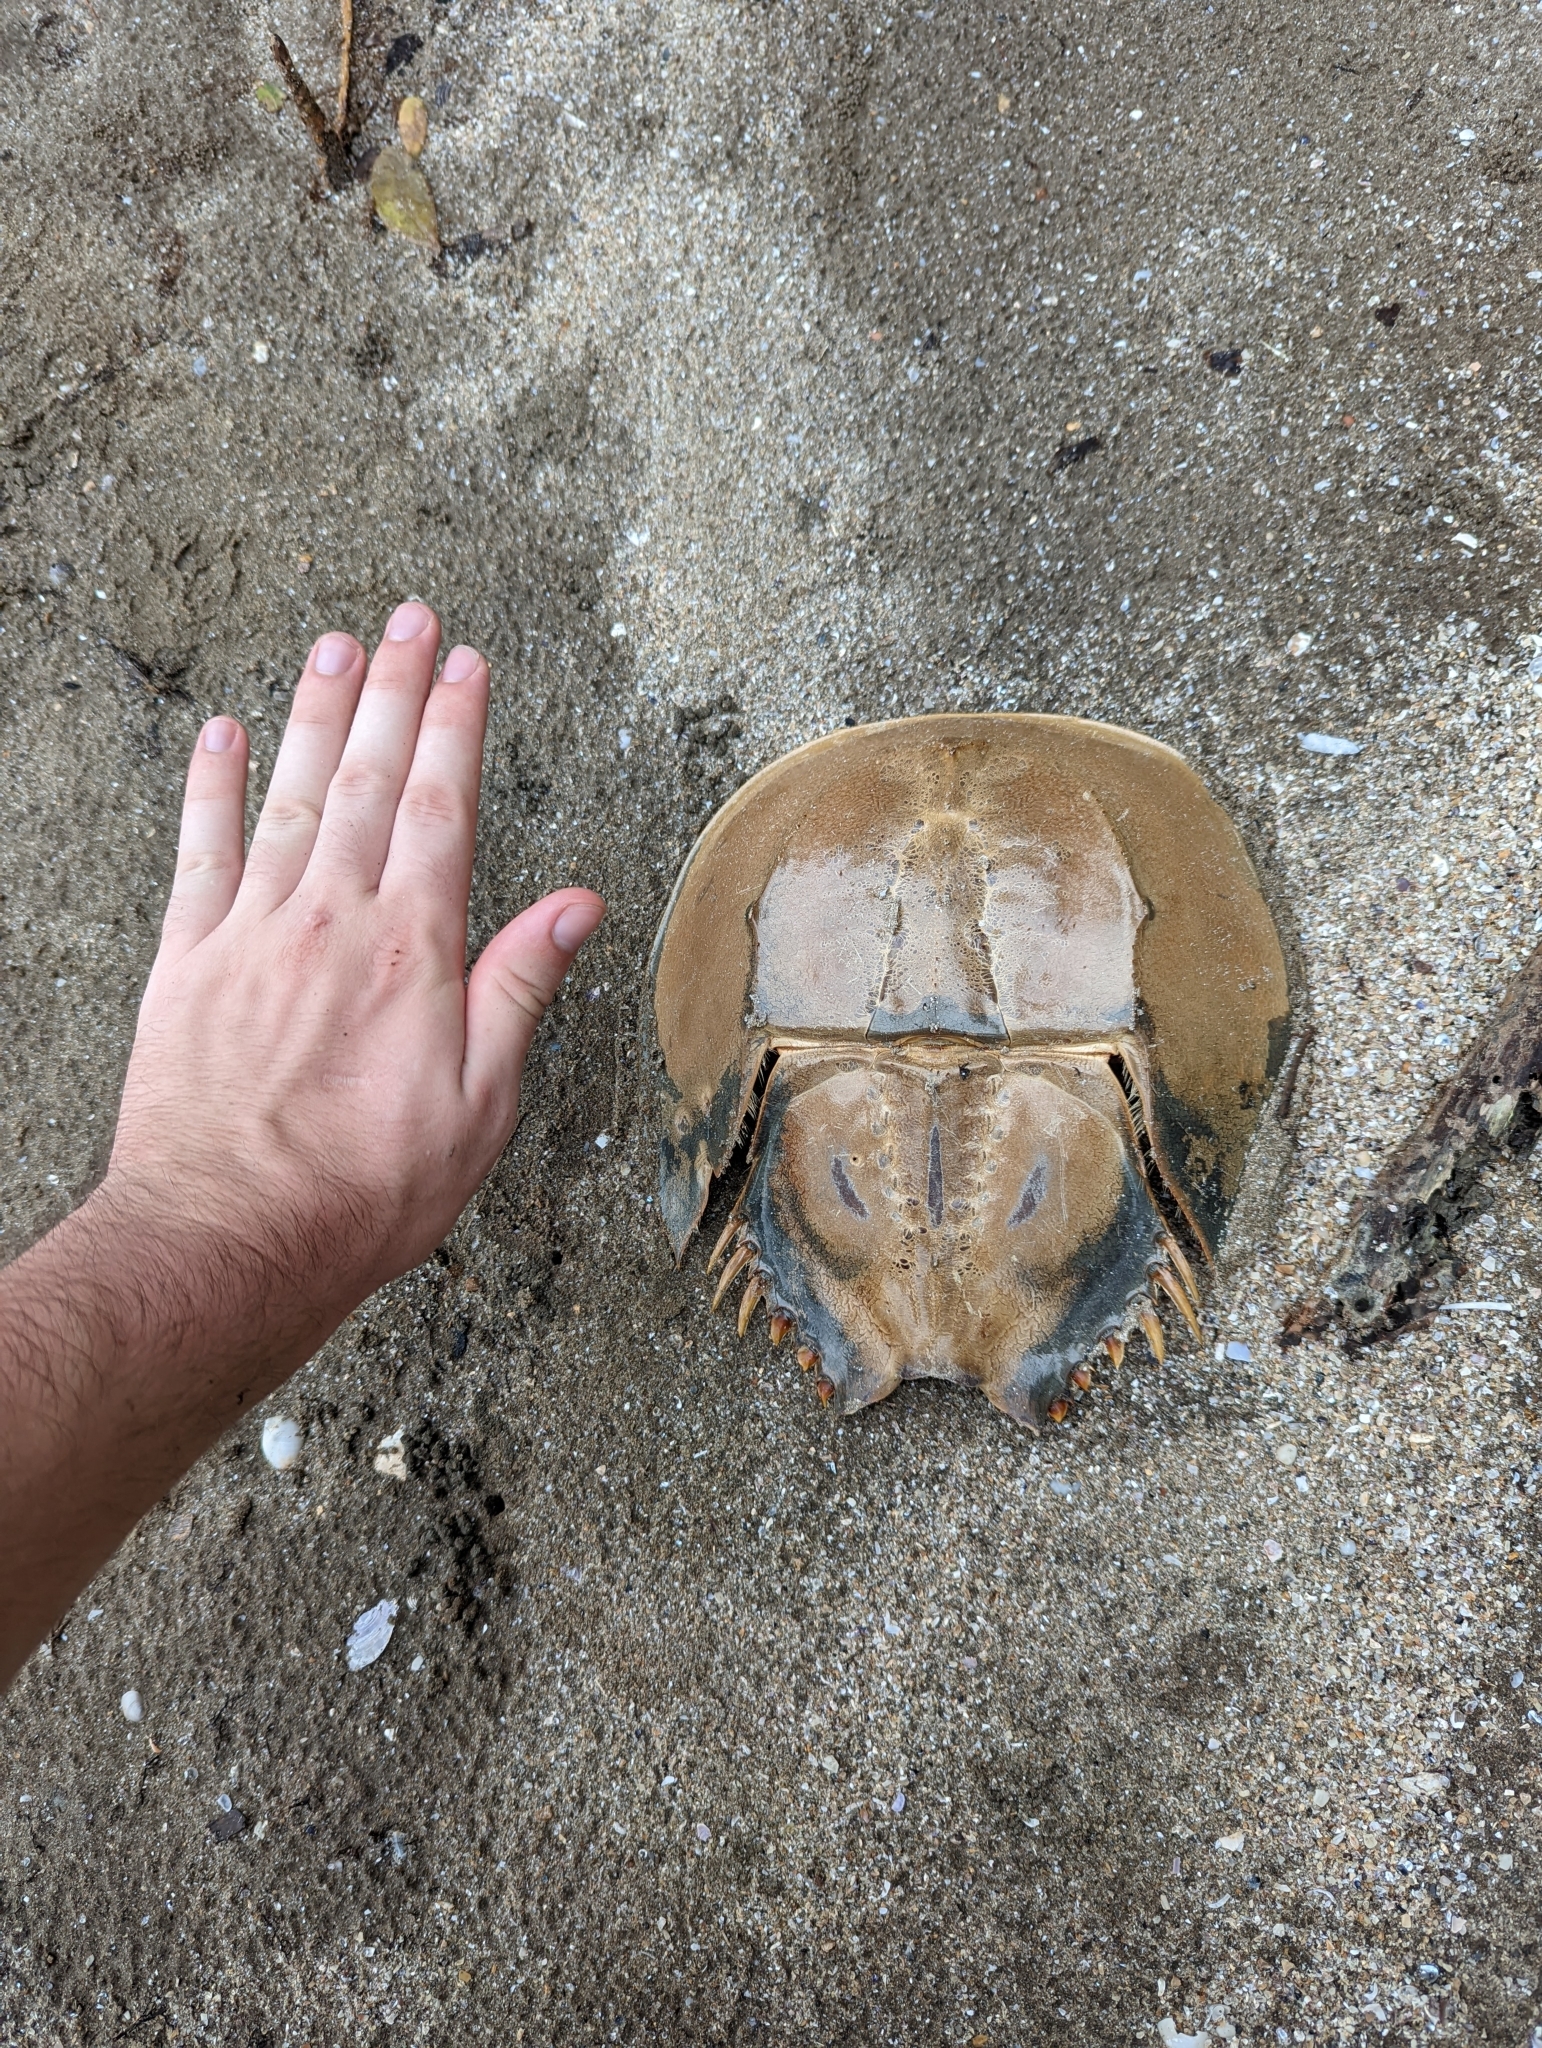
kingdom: Animalia
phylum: Arthropoda
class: Merostomata
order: Xiphosurida
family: Limulidae
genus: Tachypleus
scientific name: Tachypleus gigas
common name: Coastal horseshoe crab
